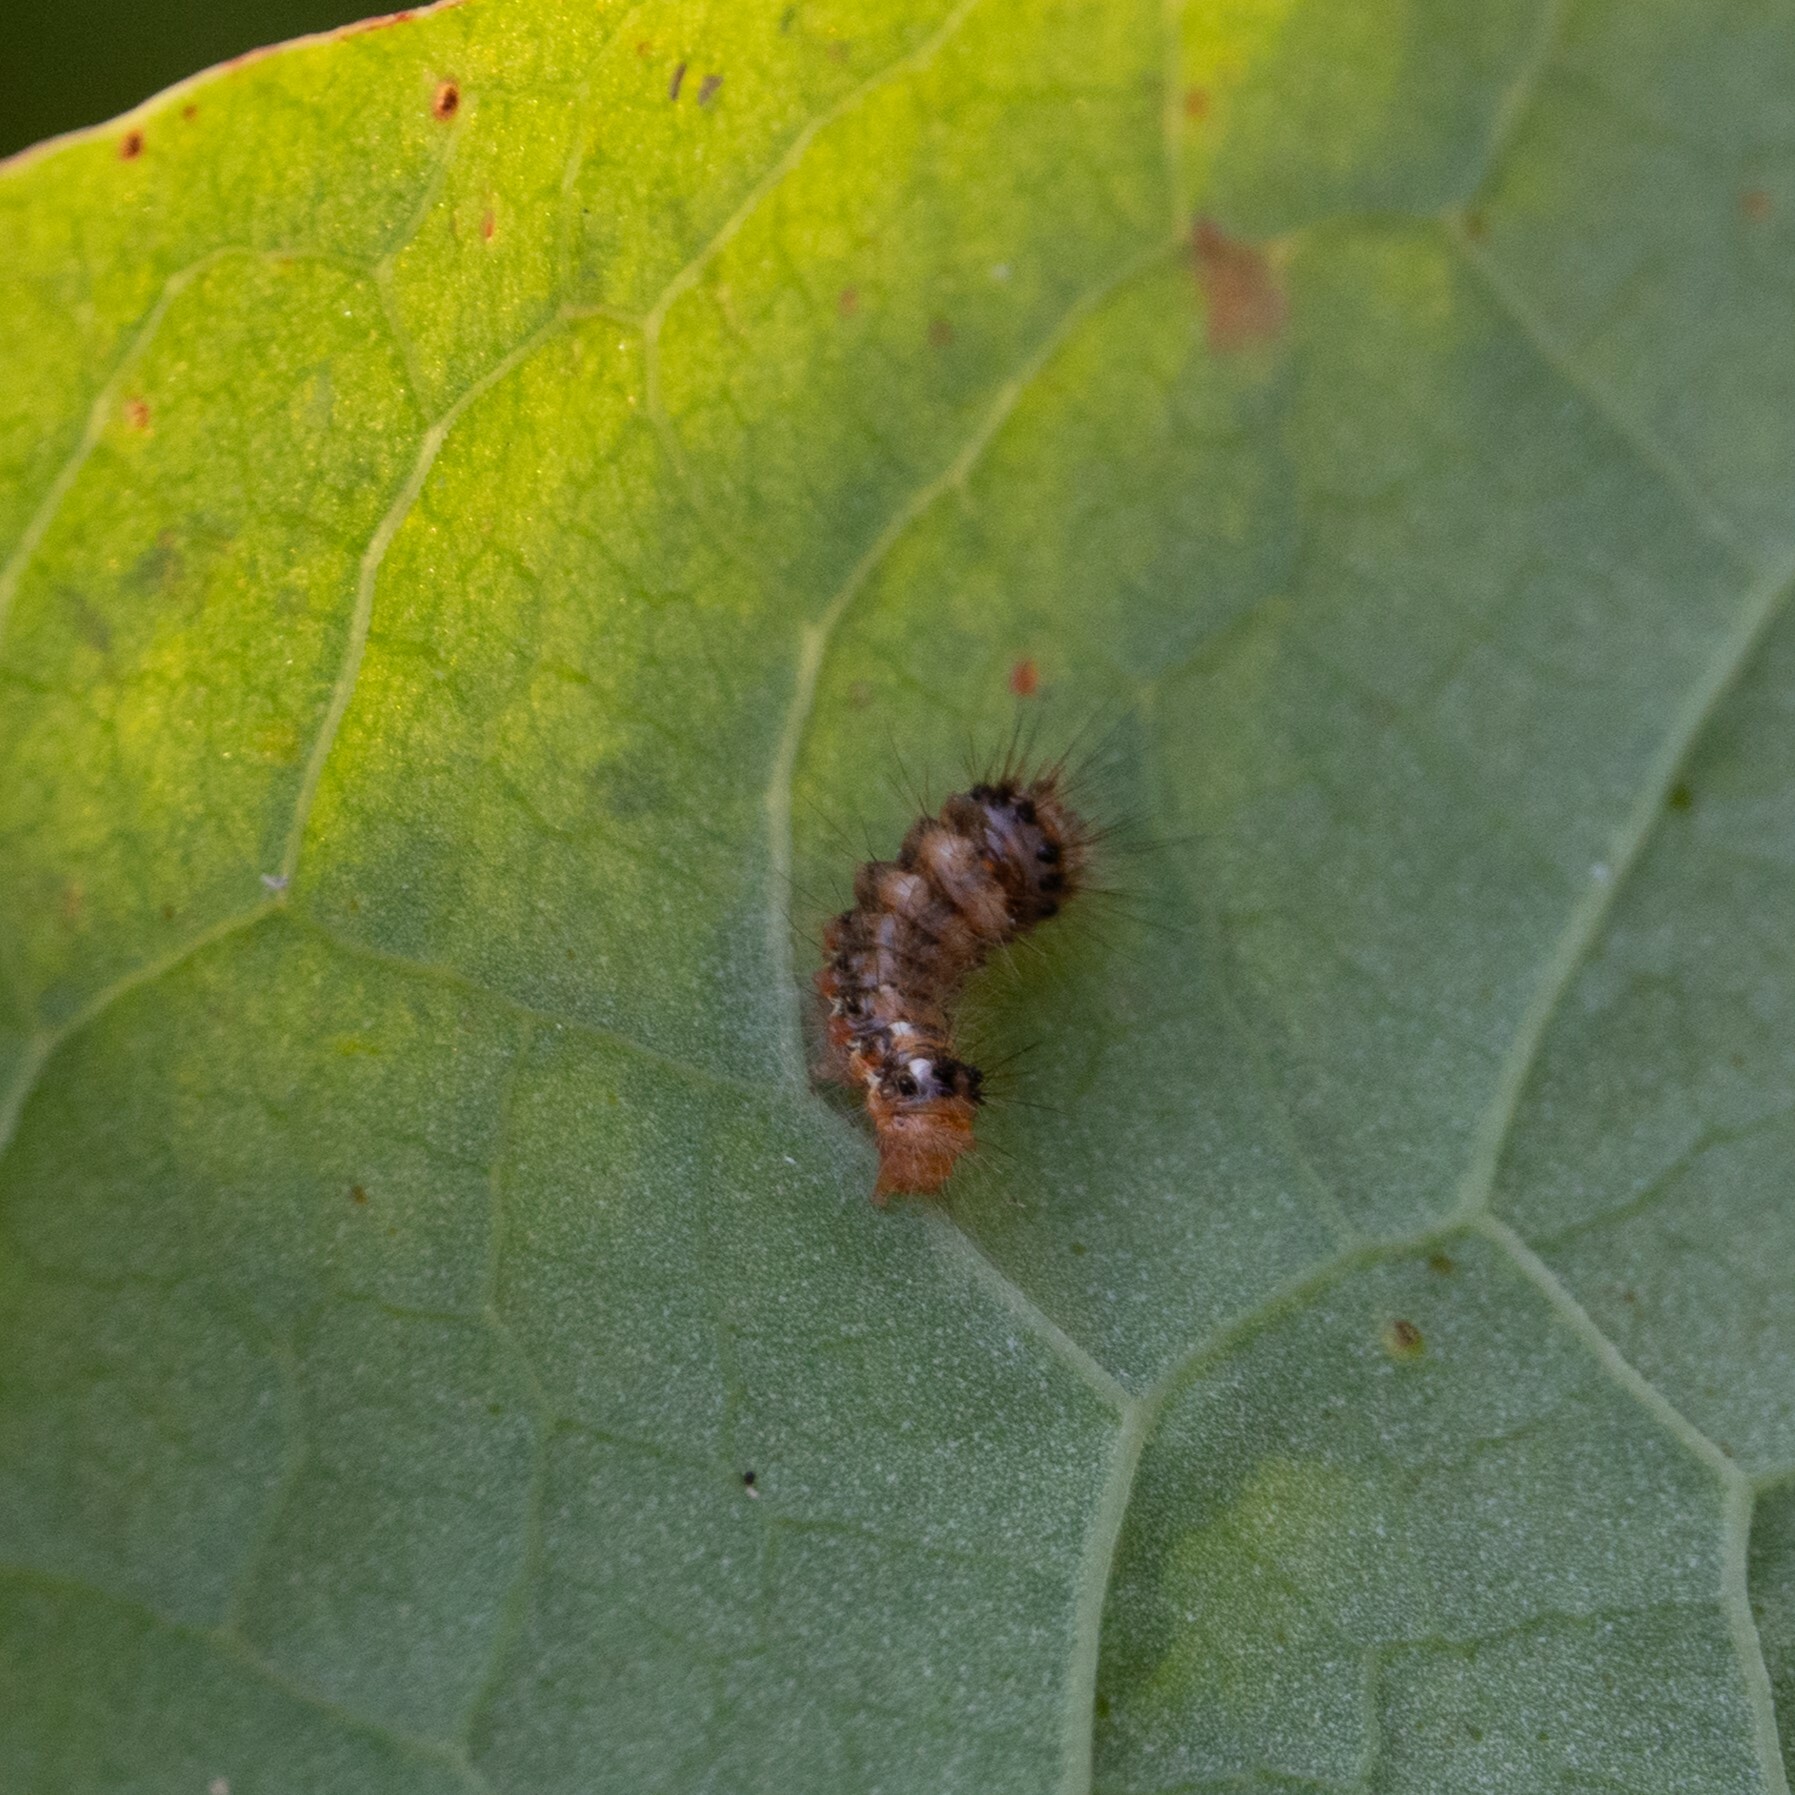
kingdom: Animalia
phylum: Arthropoda
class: Insecta
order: Lepidoptera
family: Noctuidae
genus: Acronicta
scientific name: Acronicta rumicis
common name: Knot grass
